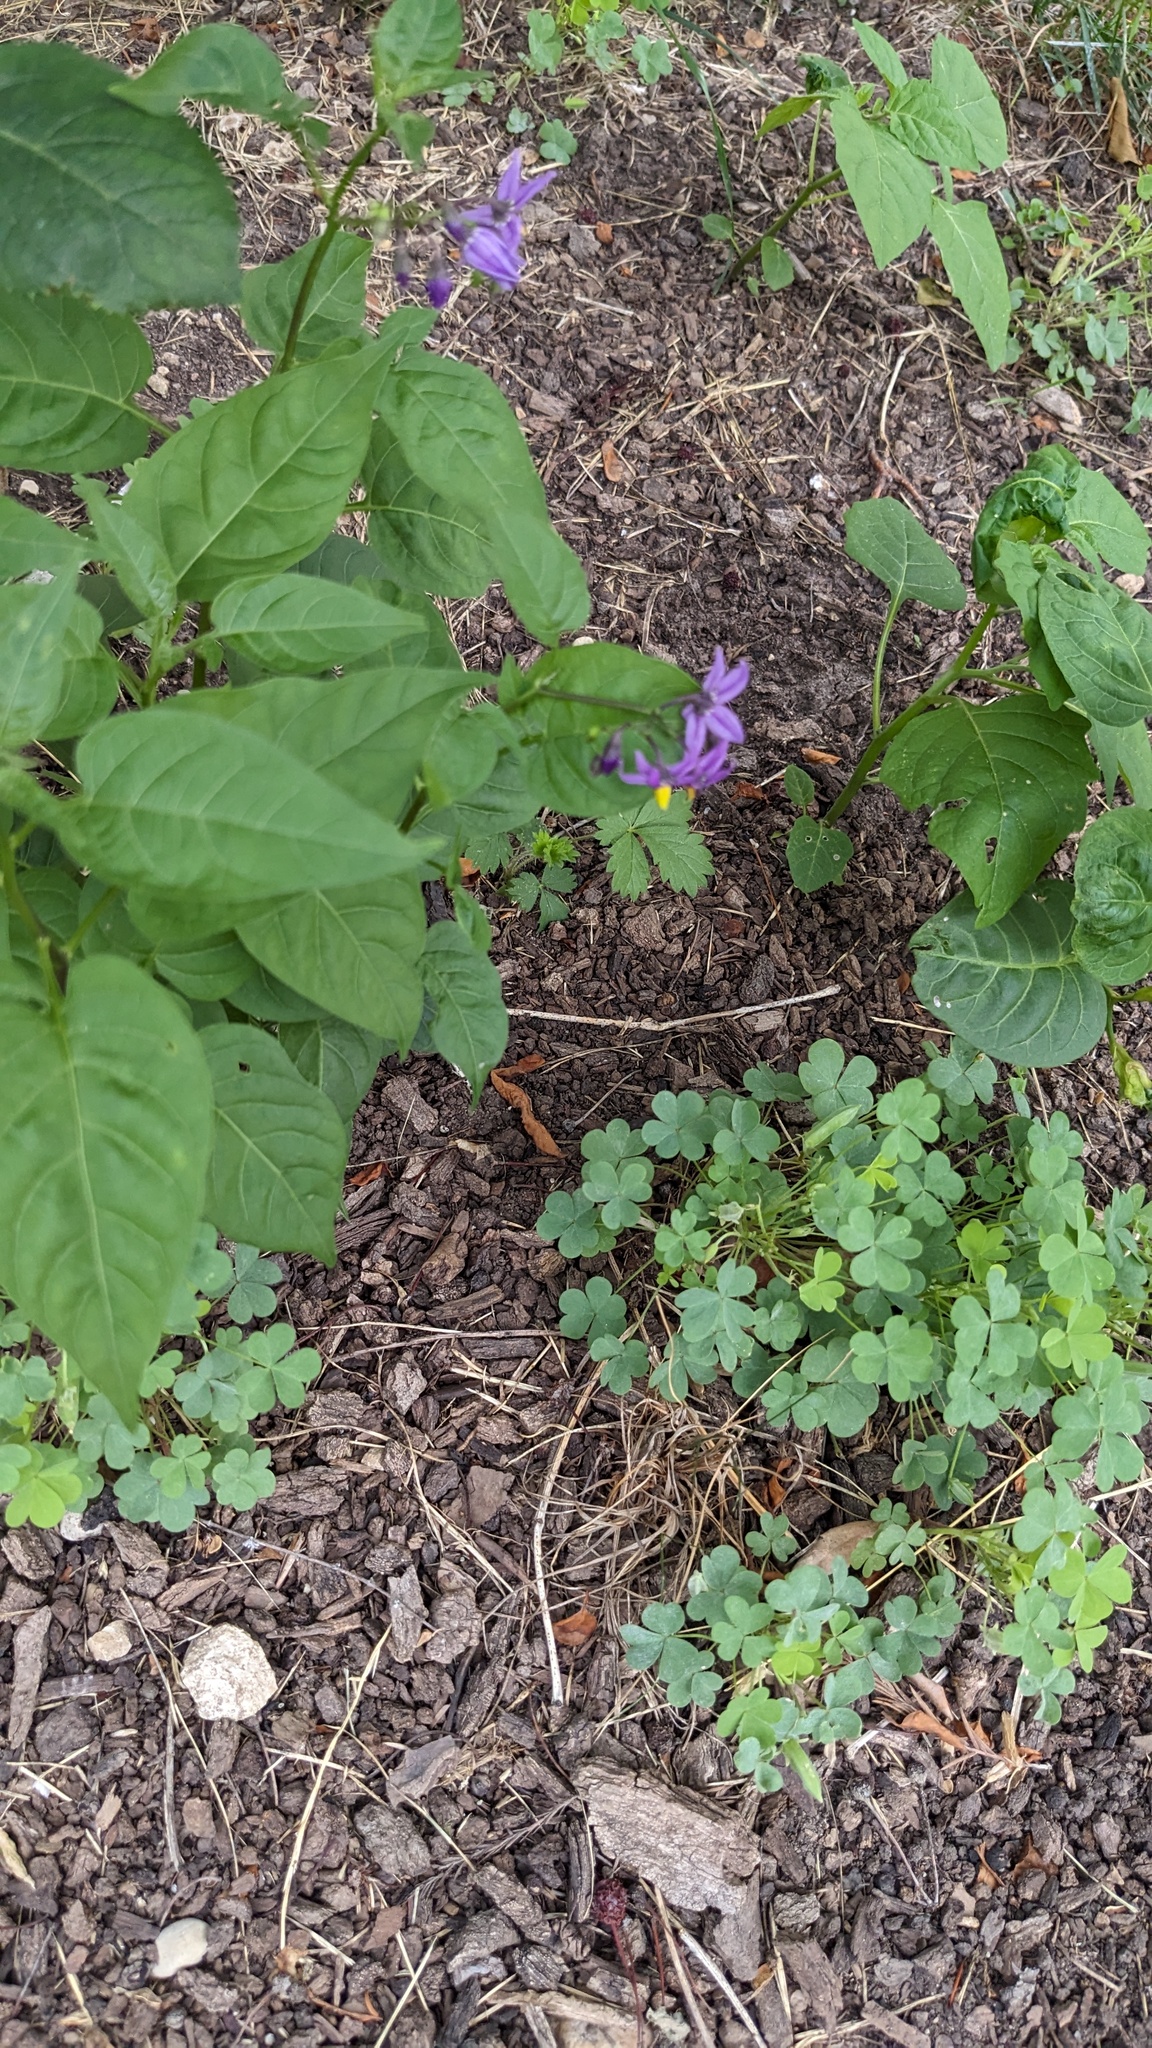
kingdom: Plantae
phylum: Tracheophyta
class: Magnoliopsida
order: Solanales
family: Solanaceae
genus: Solanum
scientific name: Solanum dulcamara
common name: Climbing nightshade
